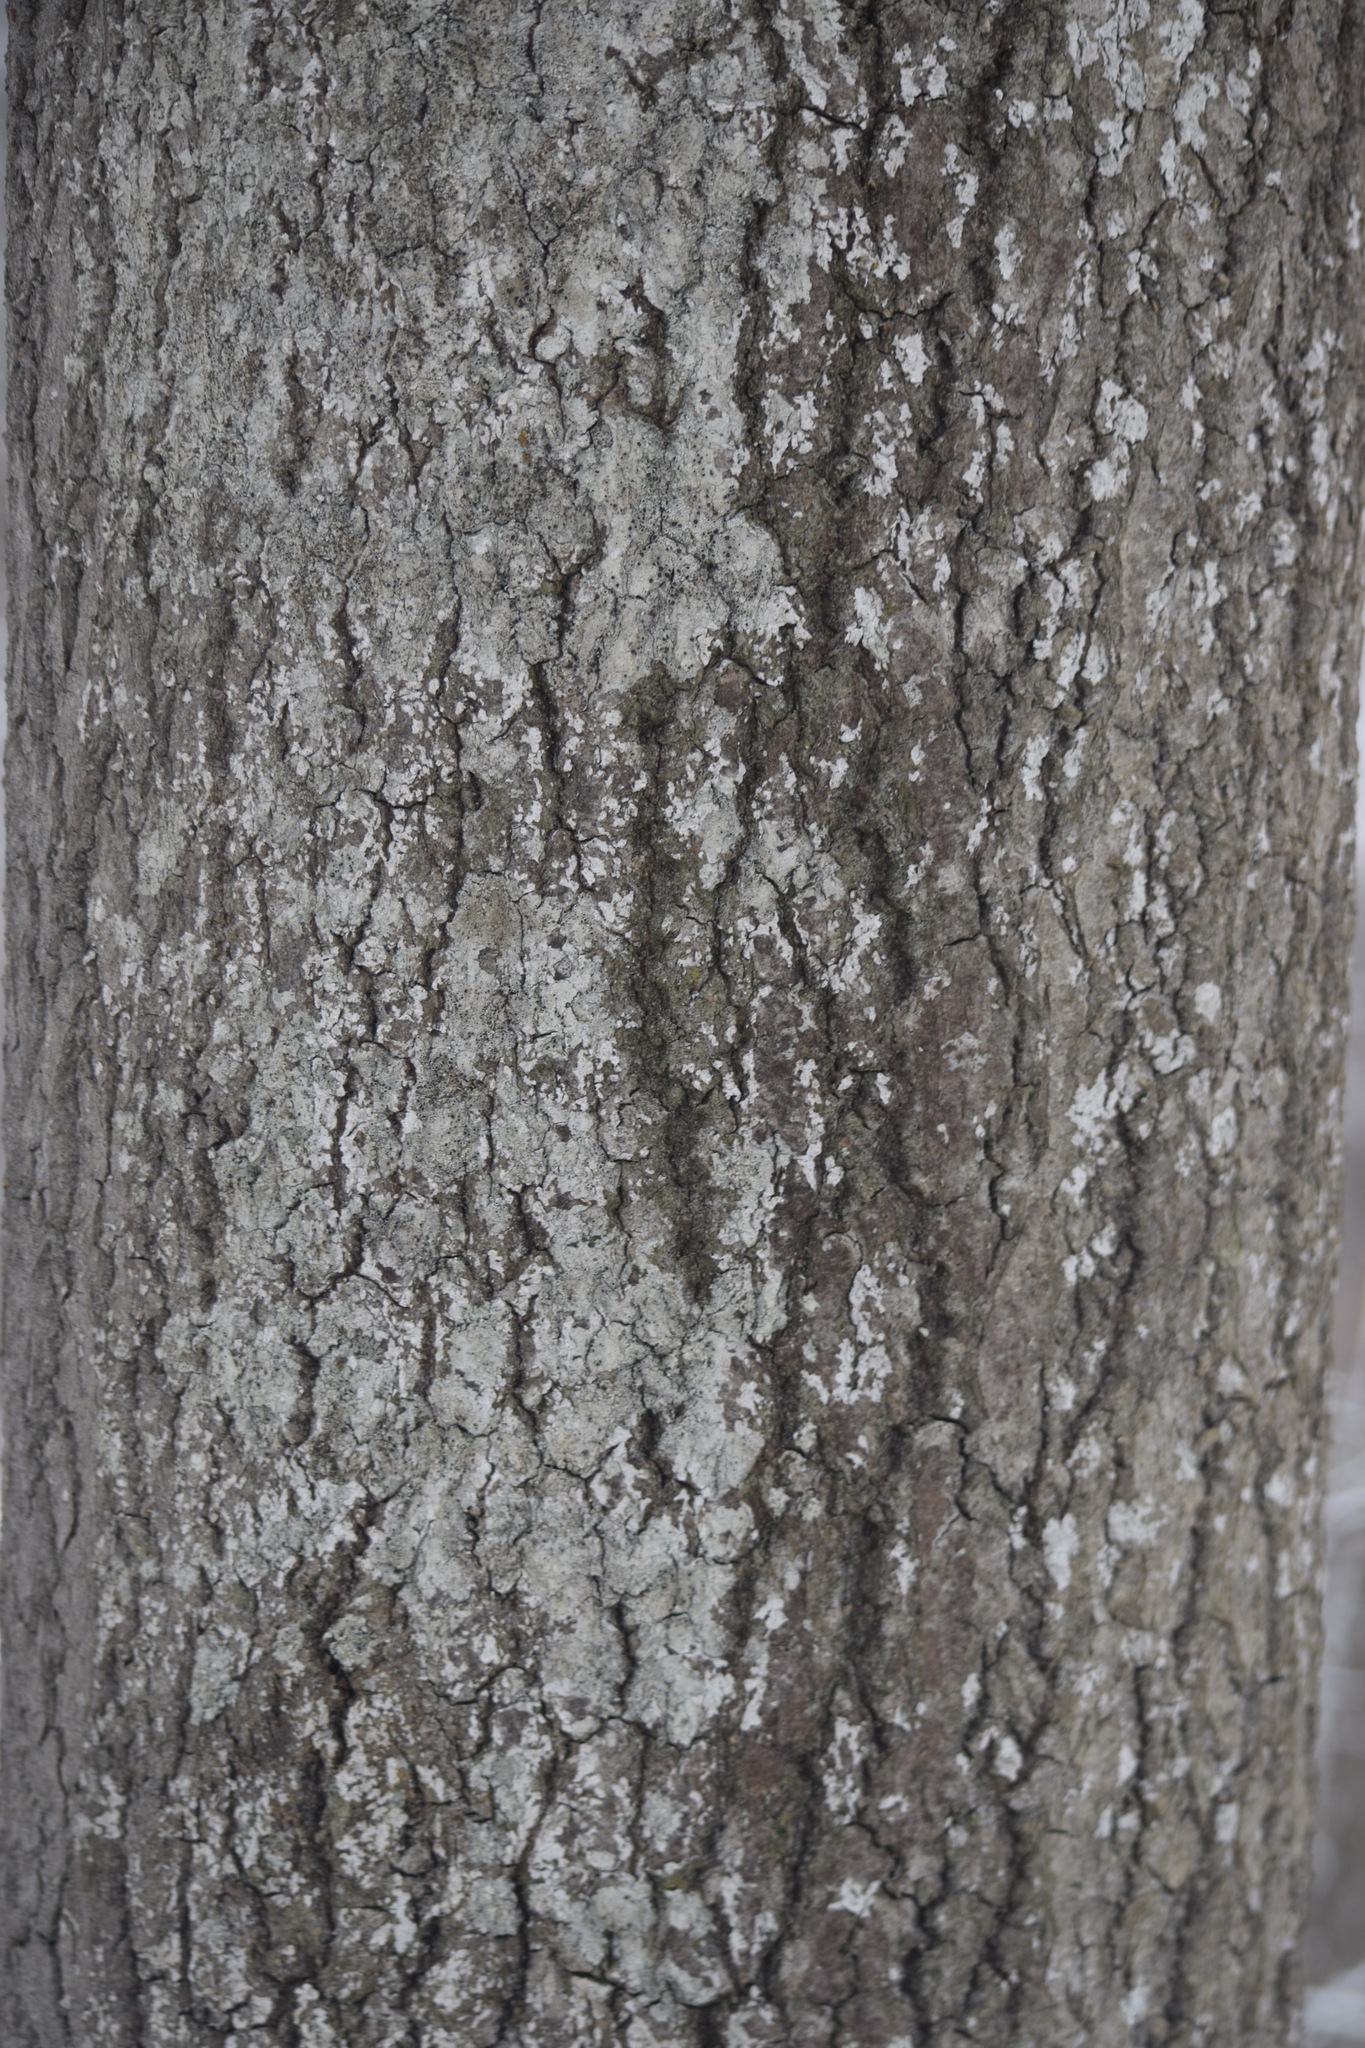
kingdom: Plantae
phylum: Tracheophyta
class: Magnoliopsida
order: Malpighiales
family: Salicaceae
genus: Populus
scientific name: Populus tremula
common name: European aspen
